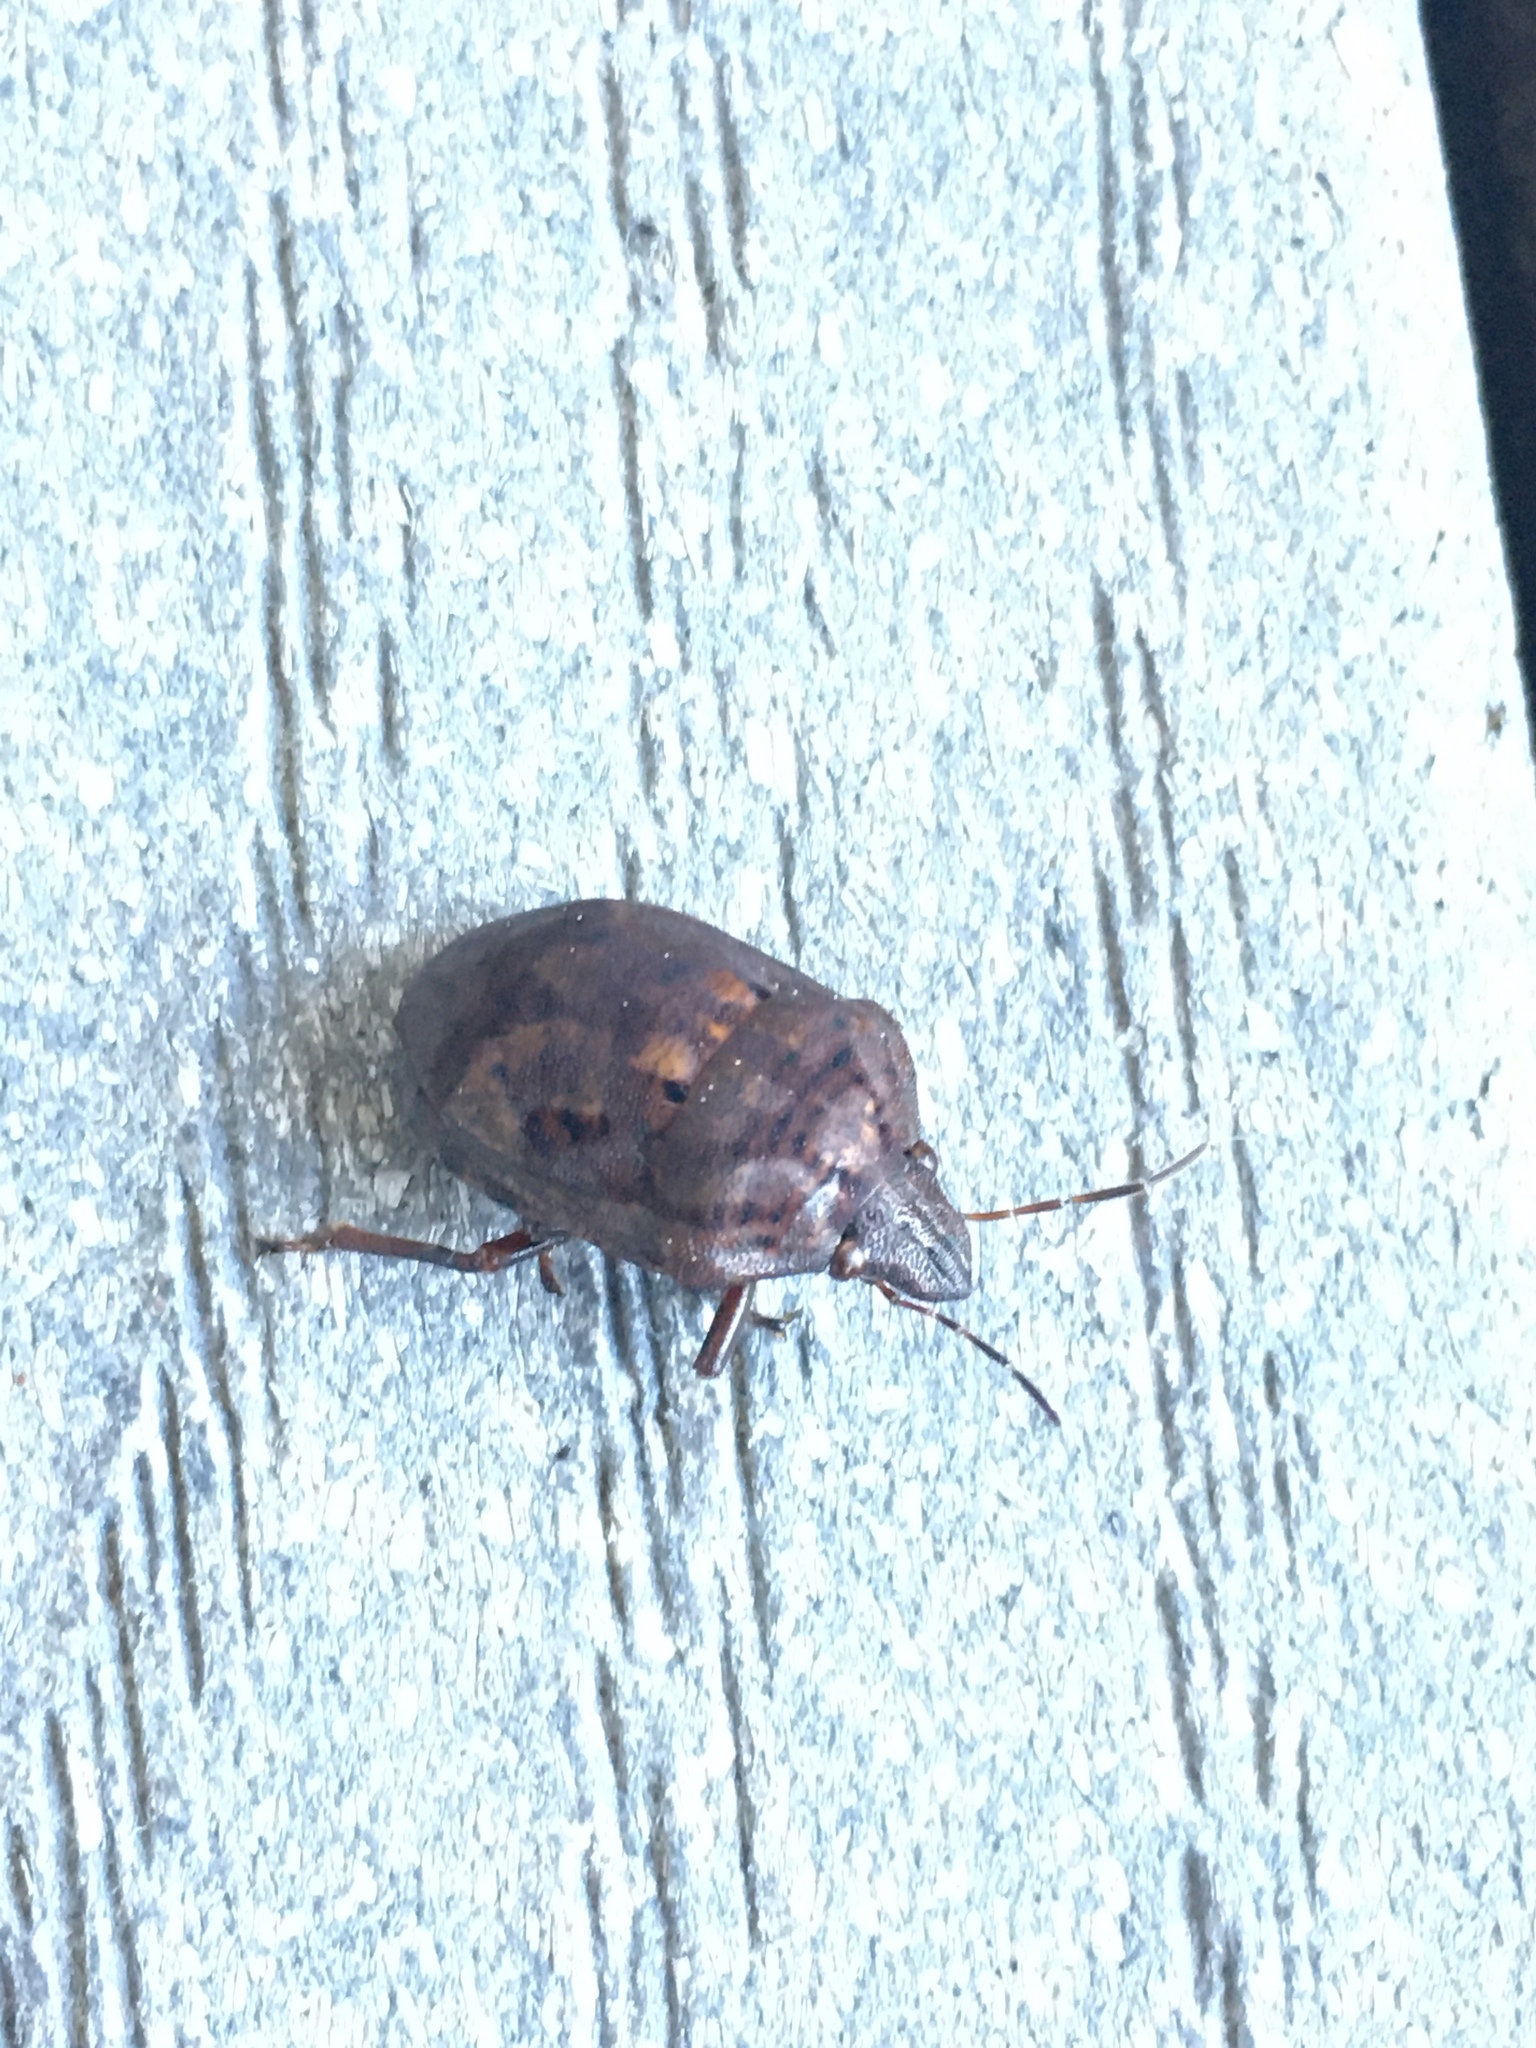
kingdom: Animalia
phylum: Arthropoda
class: Insecta
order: Hemiptera
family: Scutelleridae
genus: Tetyra
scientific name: Tetyra bipunctata
